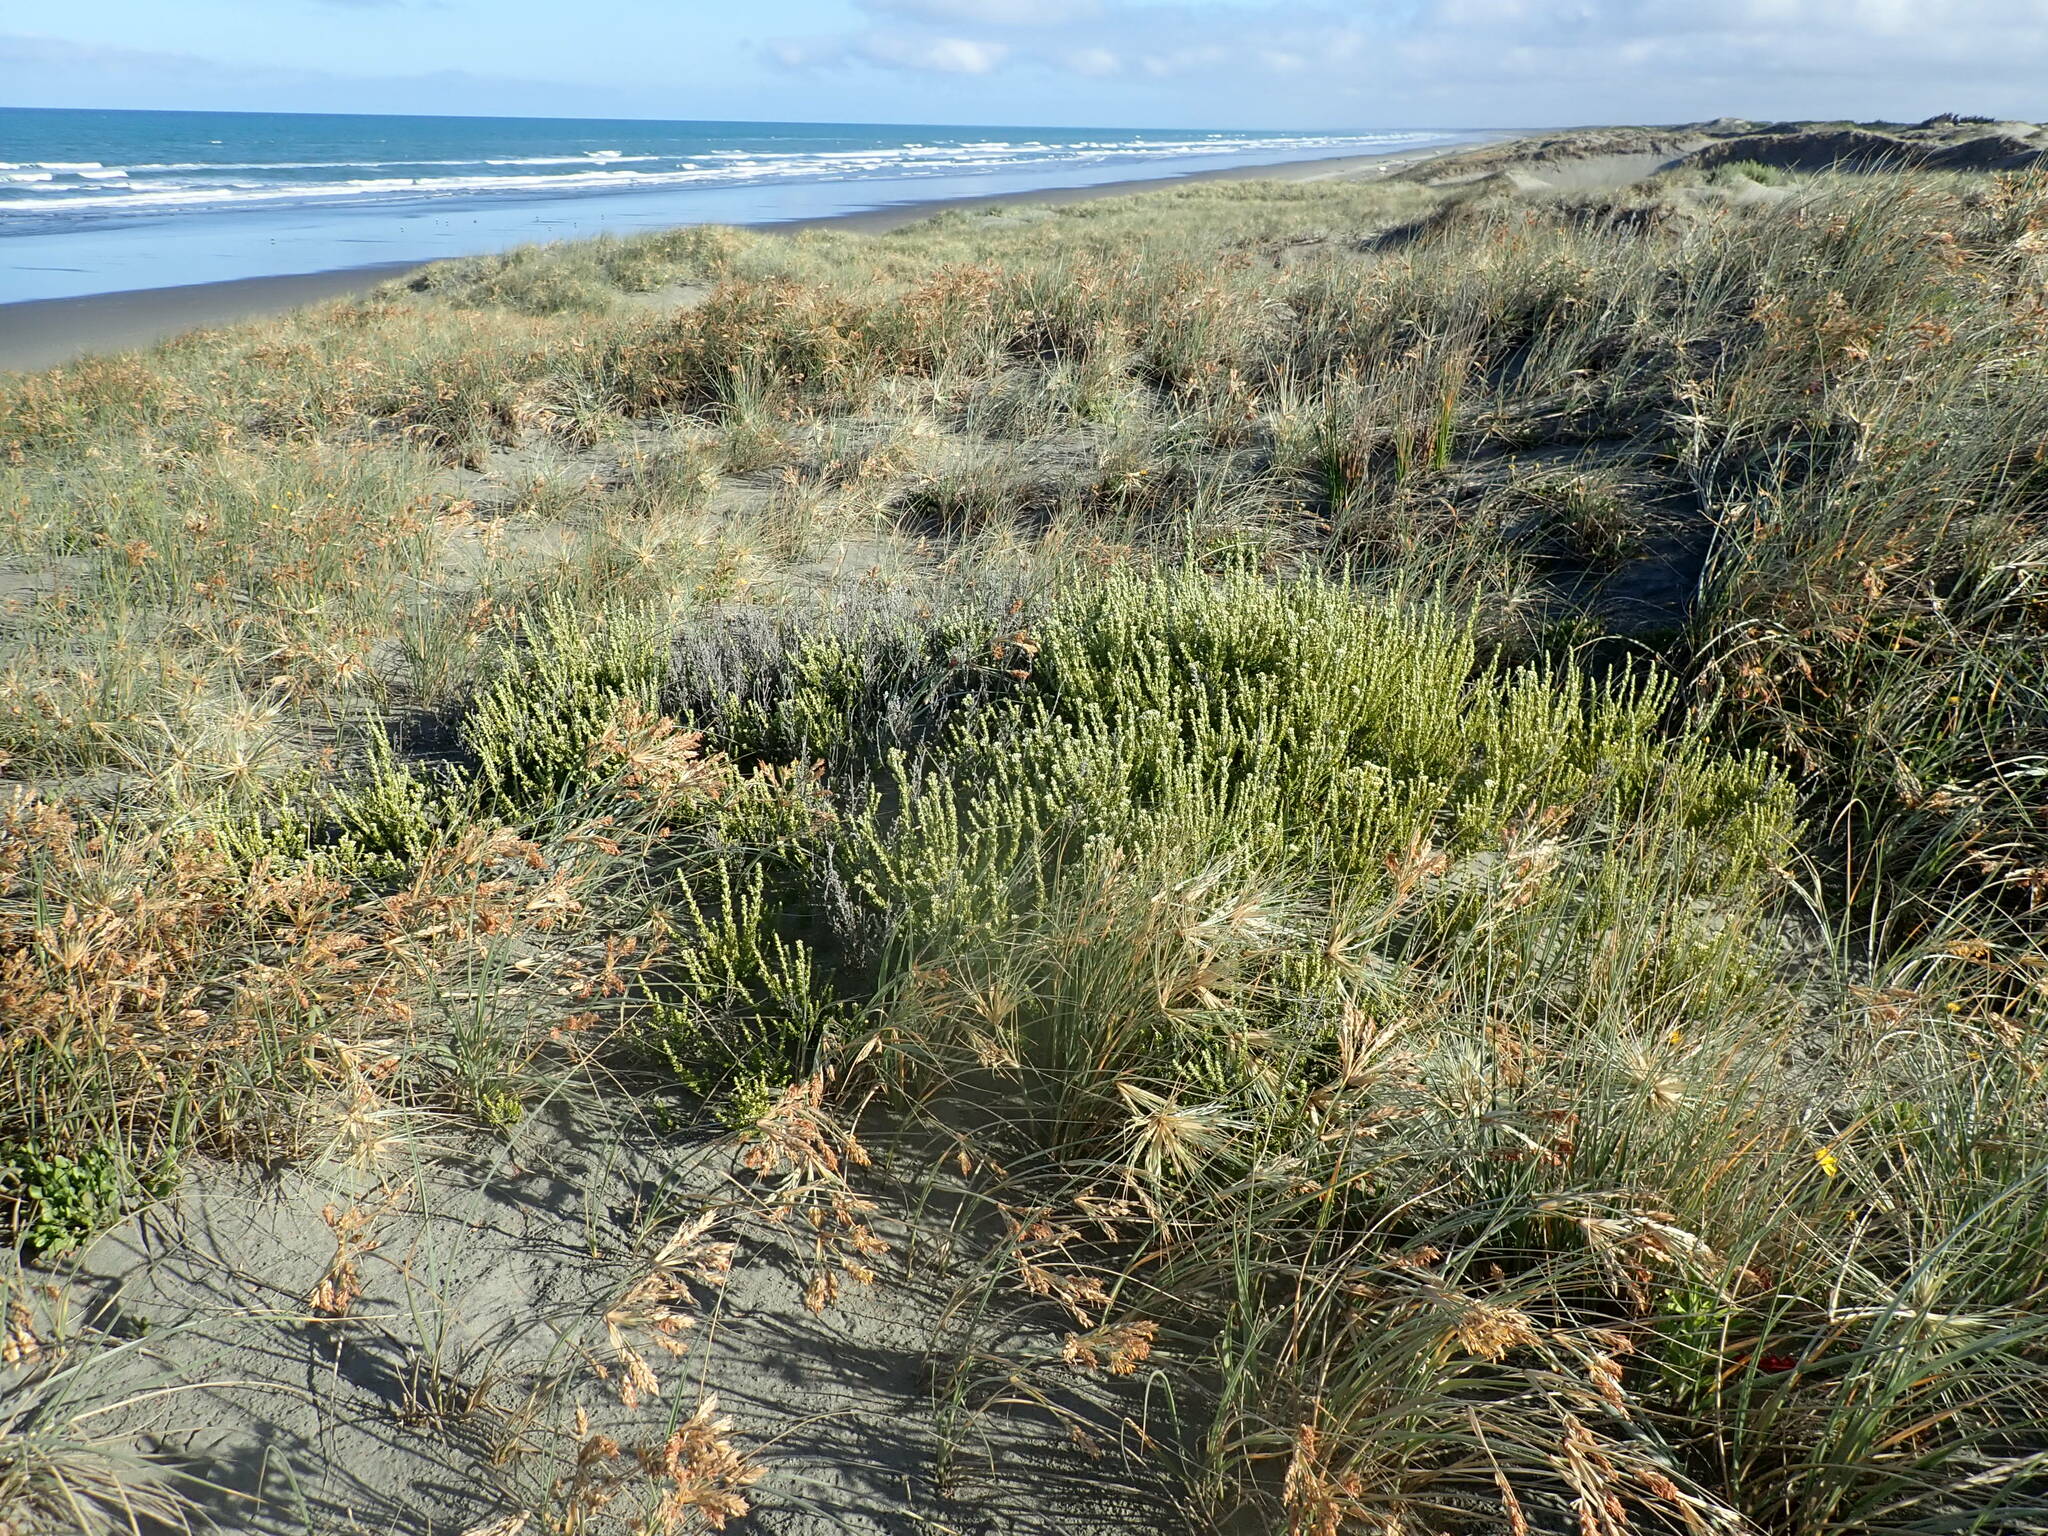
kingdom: Plantae
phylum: Tracheophyta
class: Magnoliopsida
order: Asterales
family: Asteraceae
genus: Ozothamnus
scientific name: Ozothamnus leptophyllus
